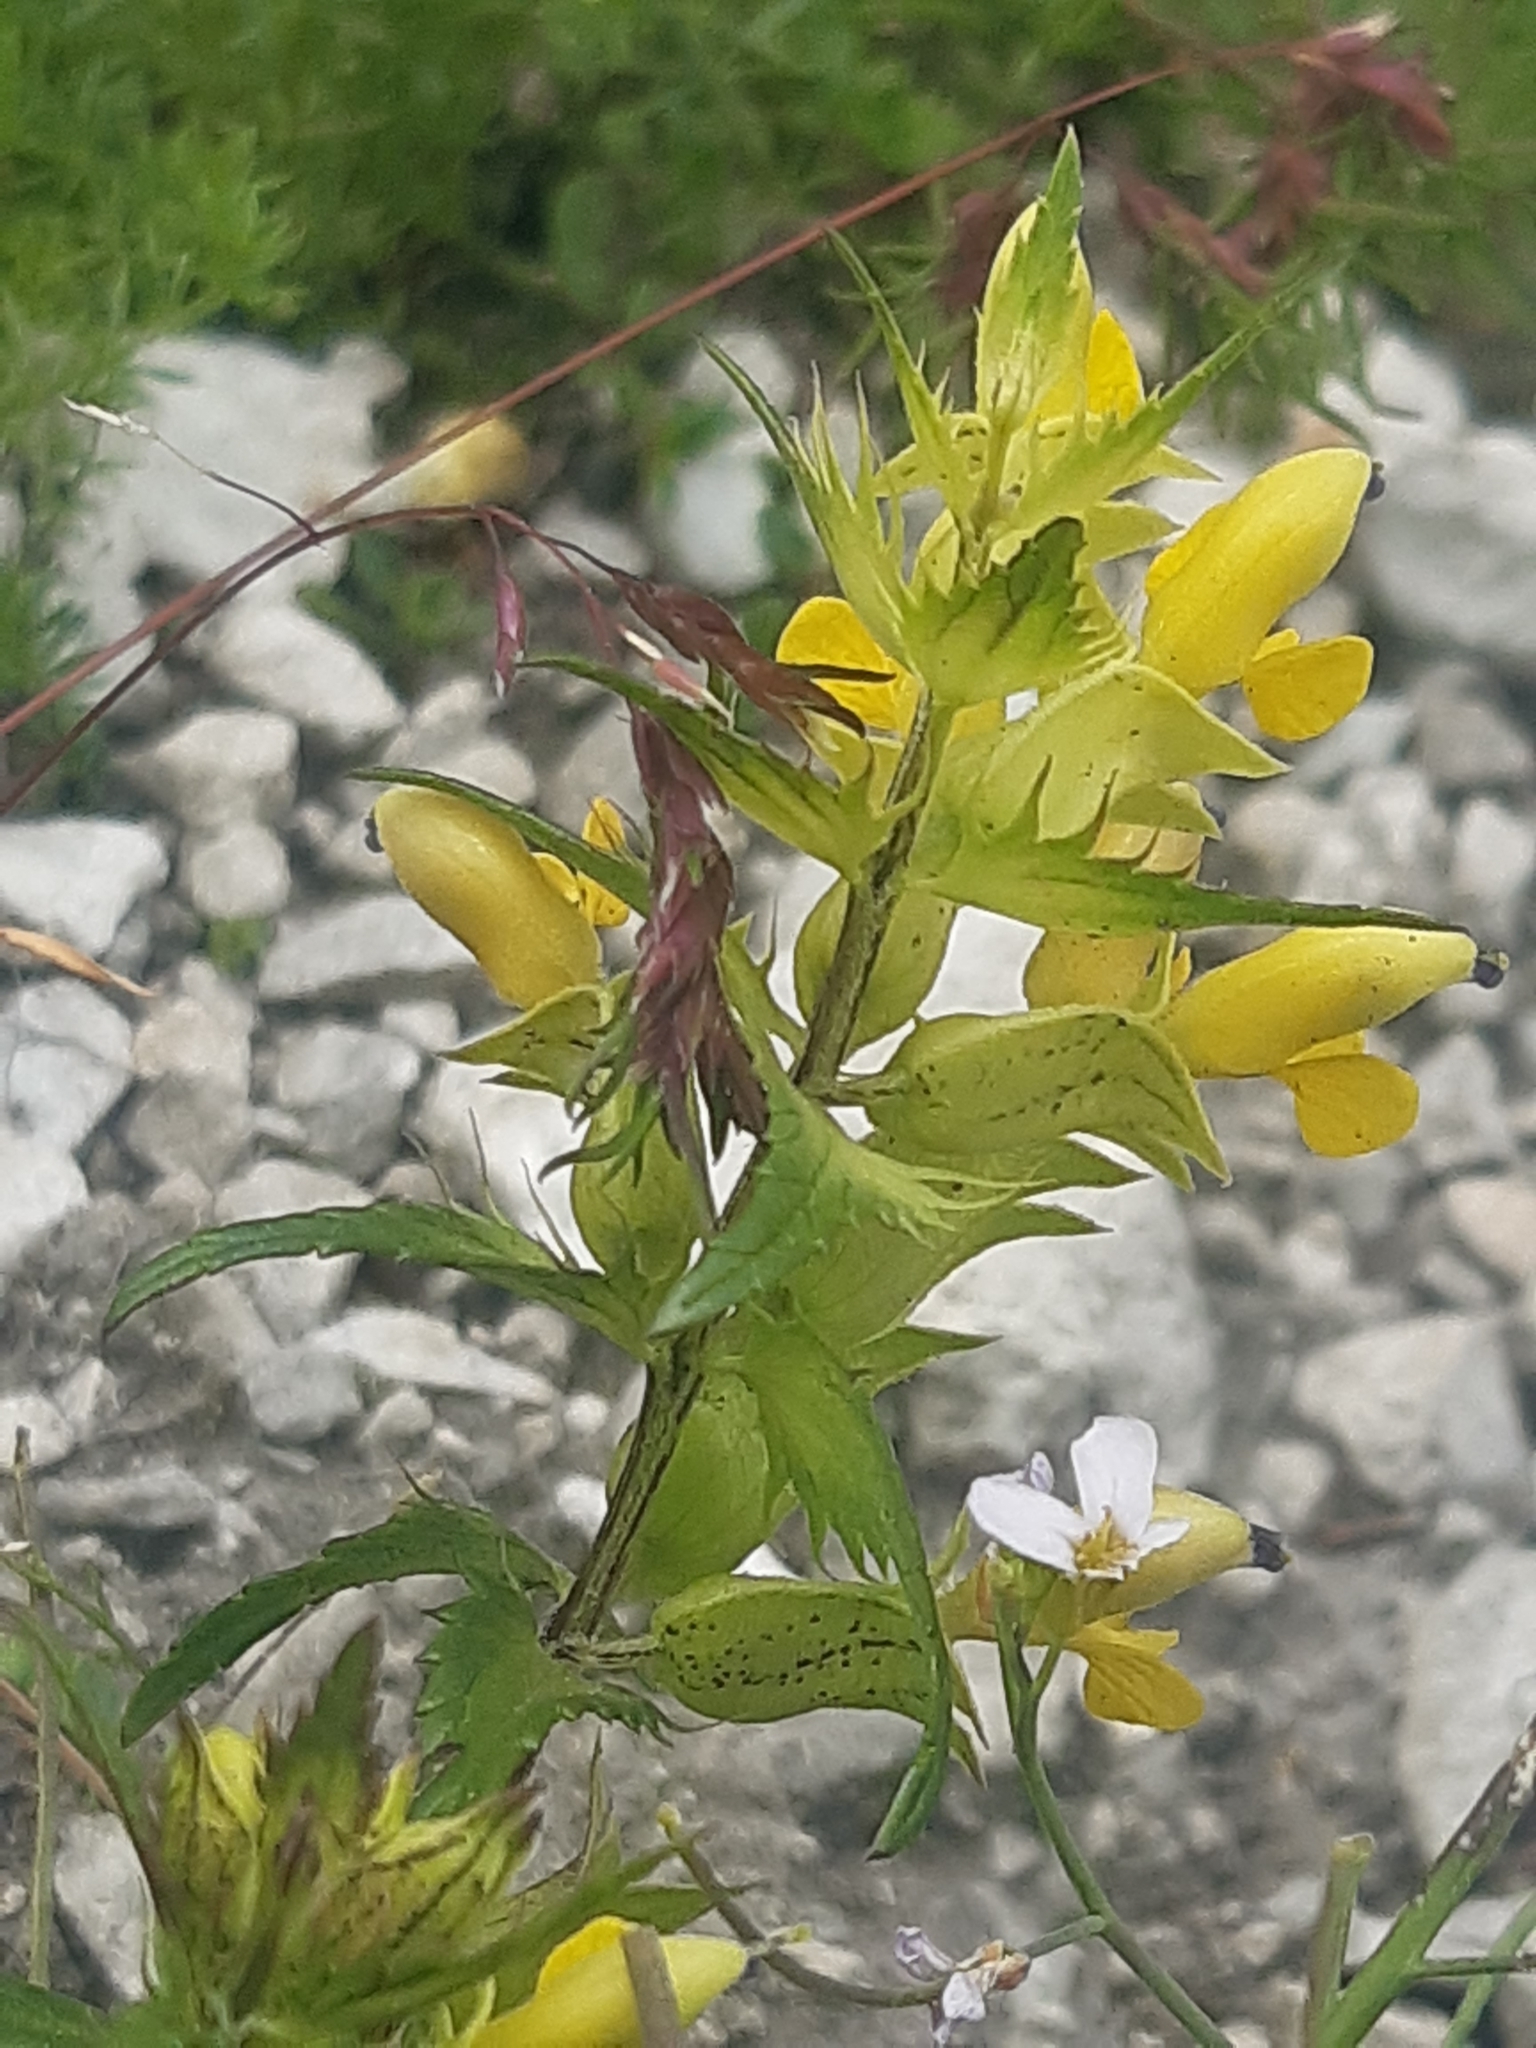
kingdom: Plantae
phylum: Tracheophyta
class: Magnoliopsida
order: Lamiales
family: Orobanchaceae
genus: Rhinanthus
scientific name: Rhinanthus glacialis
